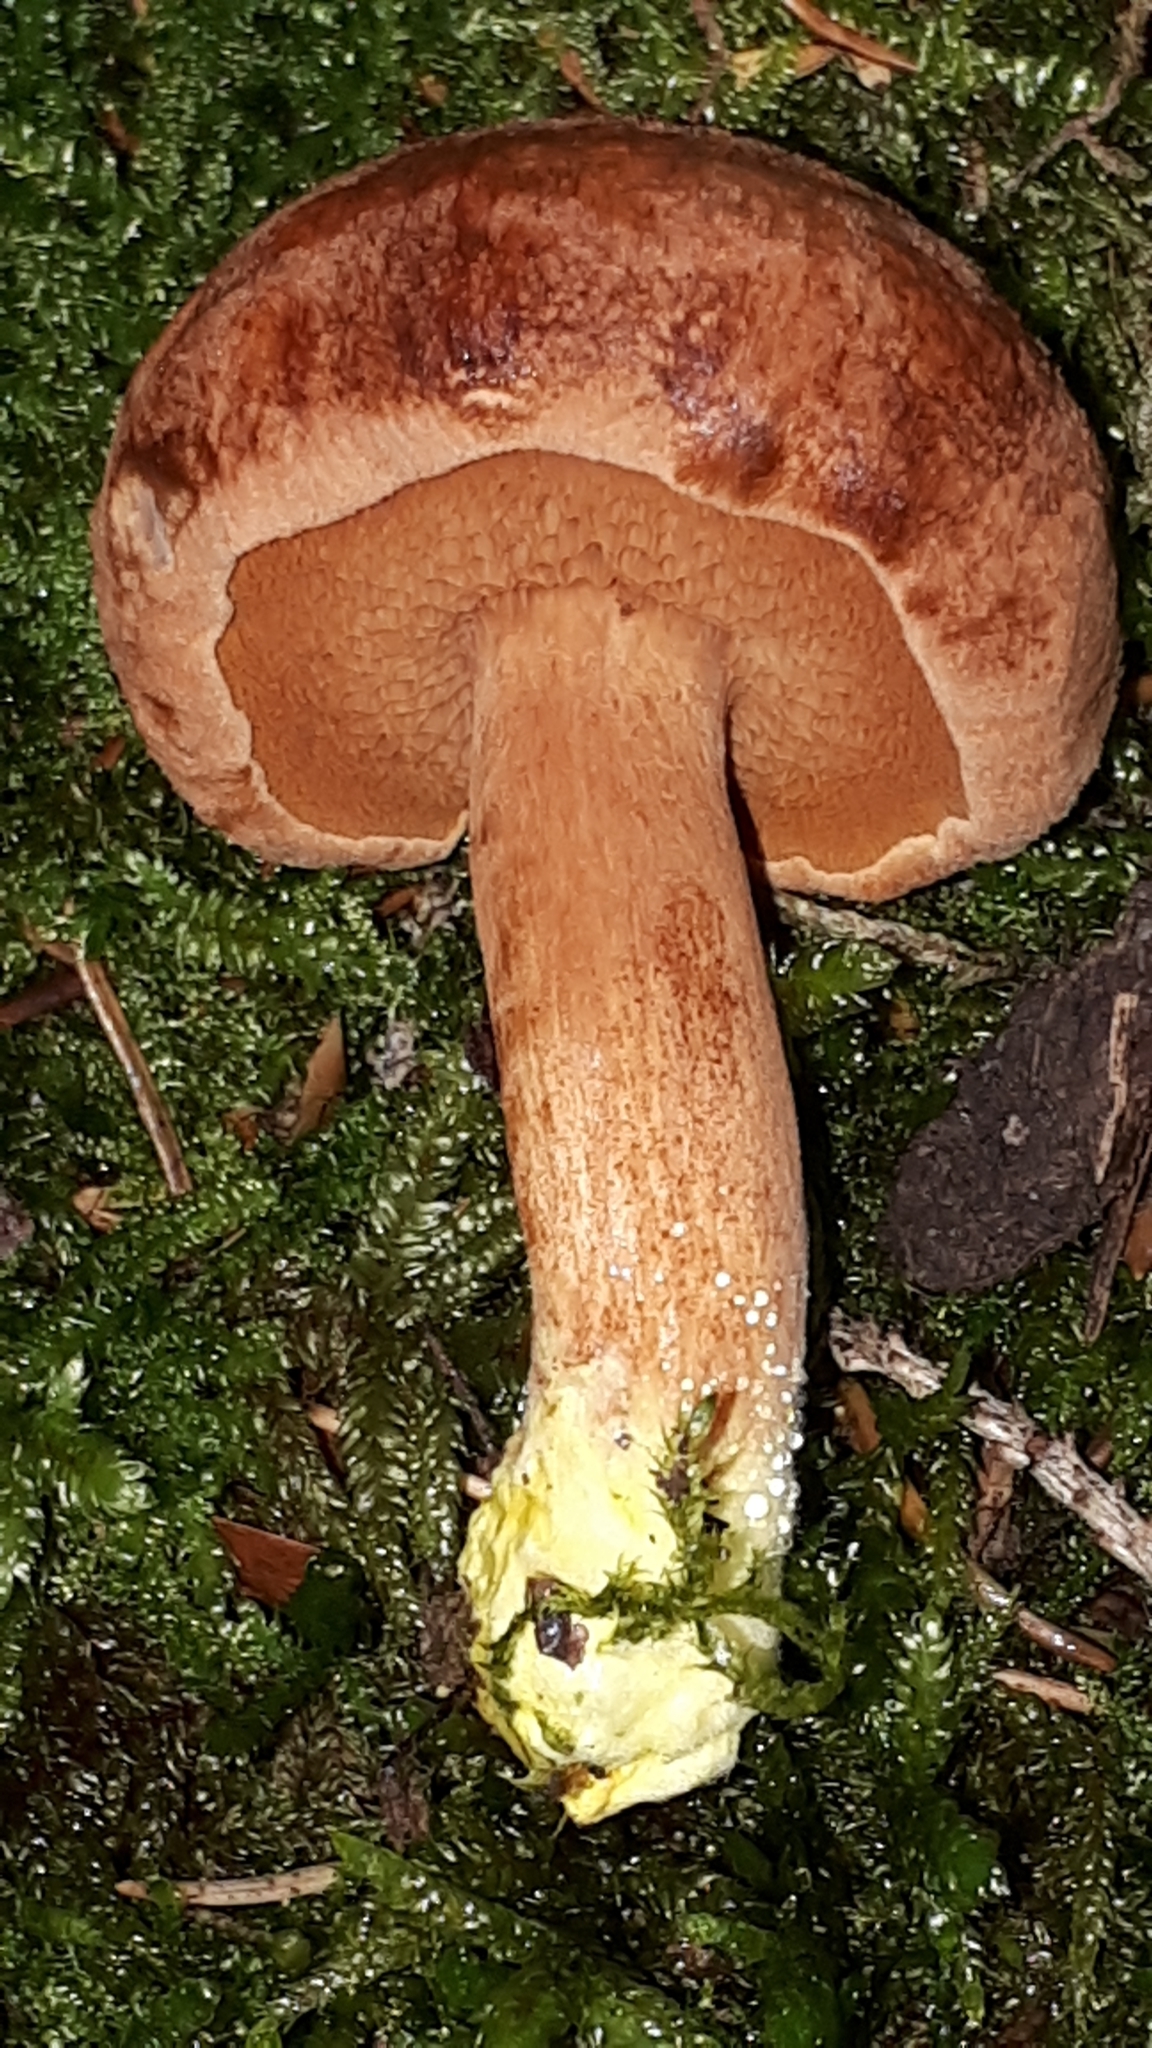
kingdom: Fungi
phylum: Basidiomycota
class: Agaricomycetes
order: Boletales
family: Boletaceae
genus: Chalciporus
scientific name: Chalciporus piperatus
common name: Peppery bolete
